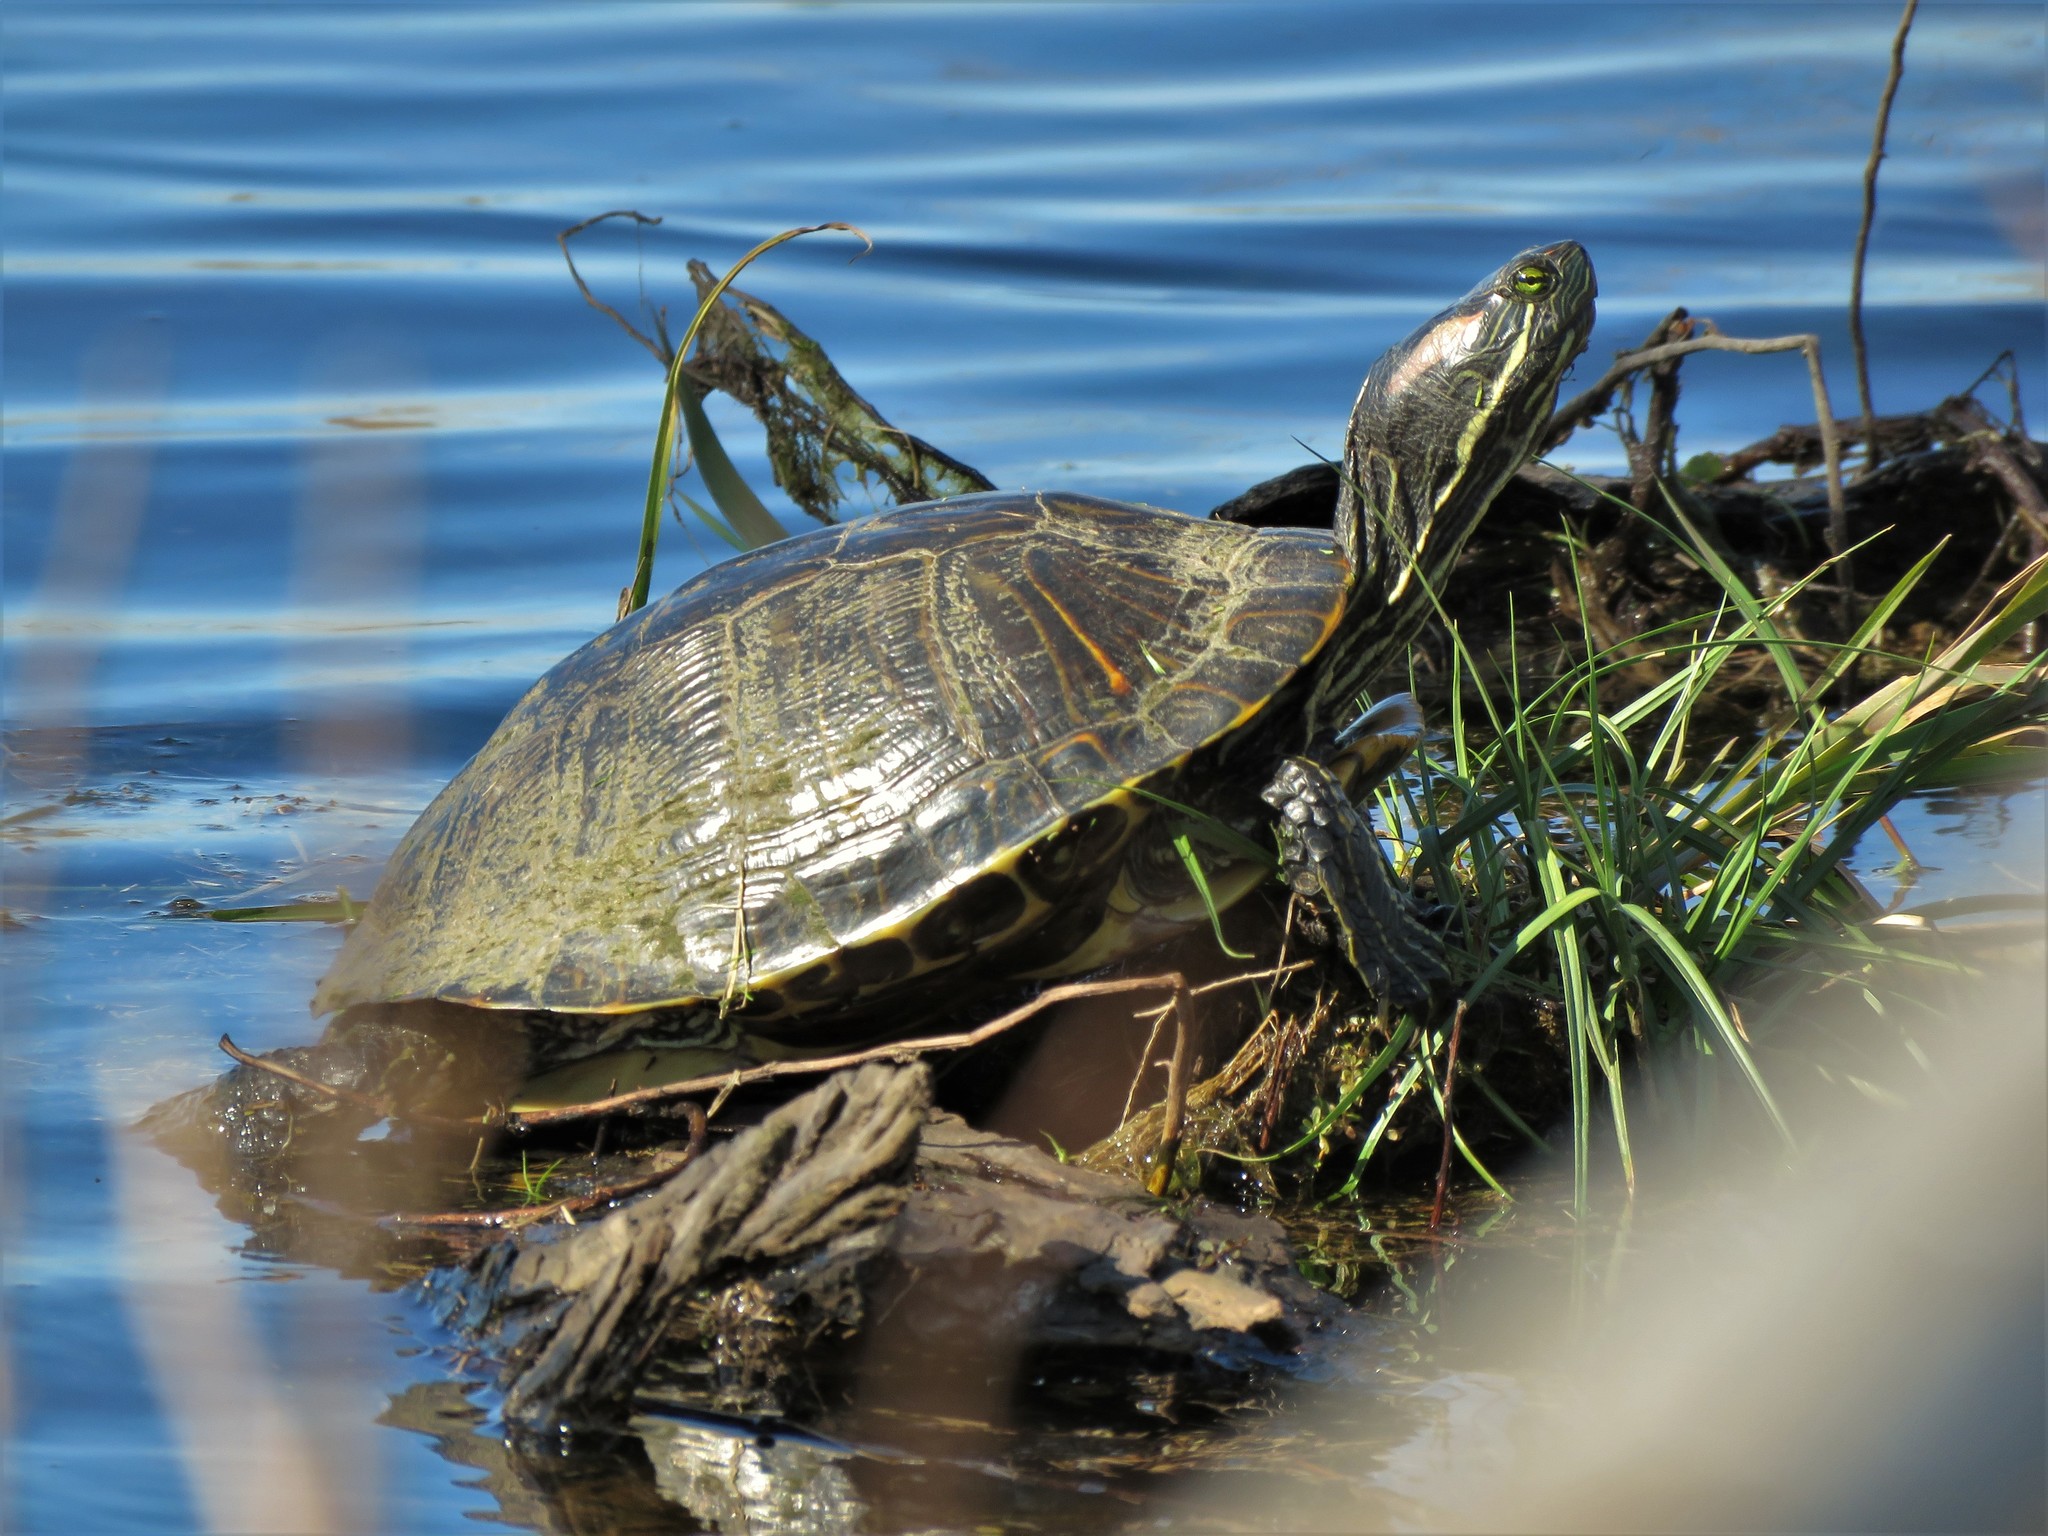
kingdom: Animalia
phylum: Chordata
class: Testudines
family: Emydidae
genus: Trachemys
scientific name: Trachemys scripta
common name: Slider
